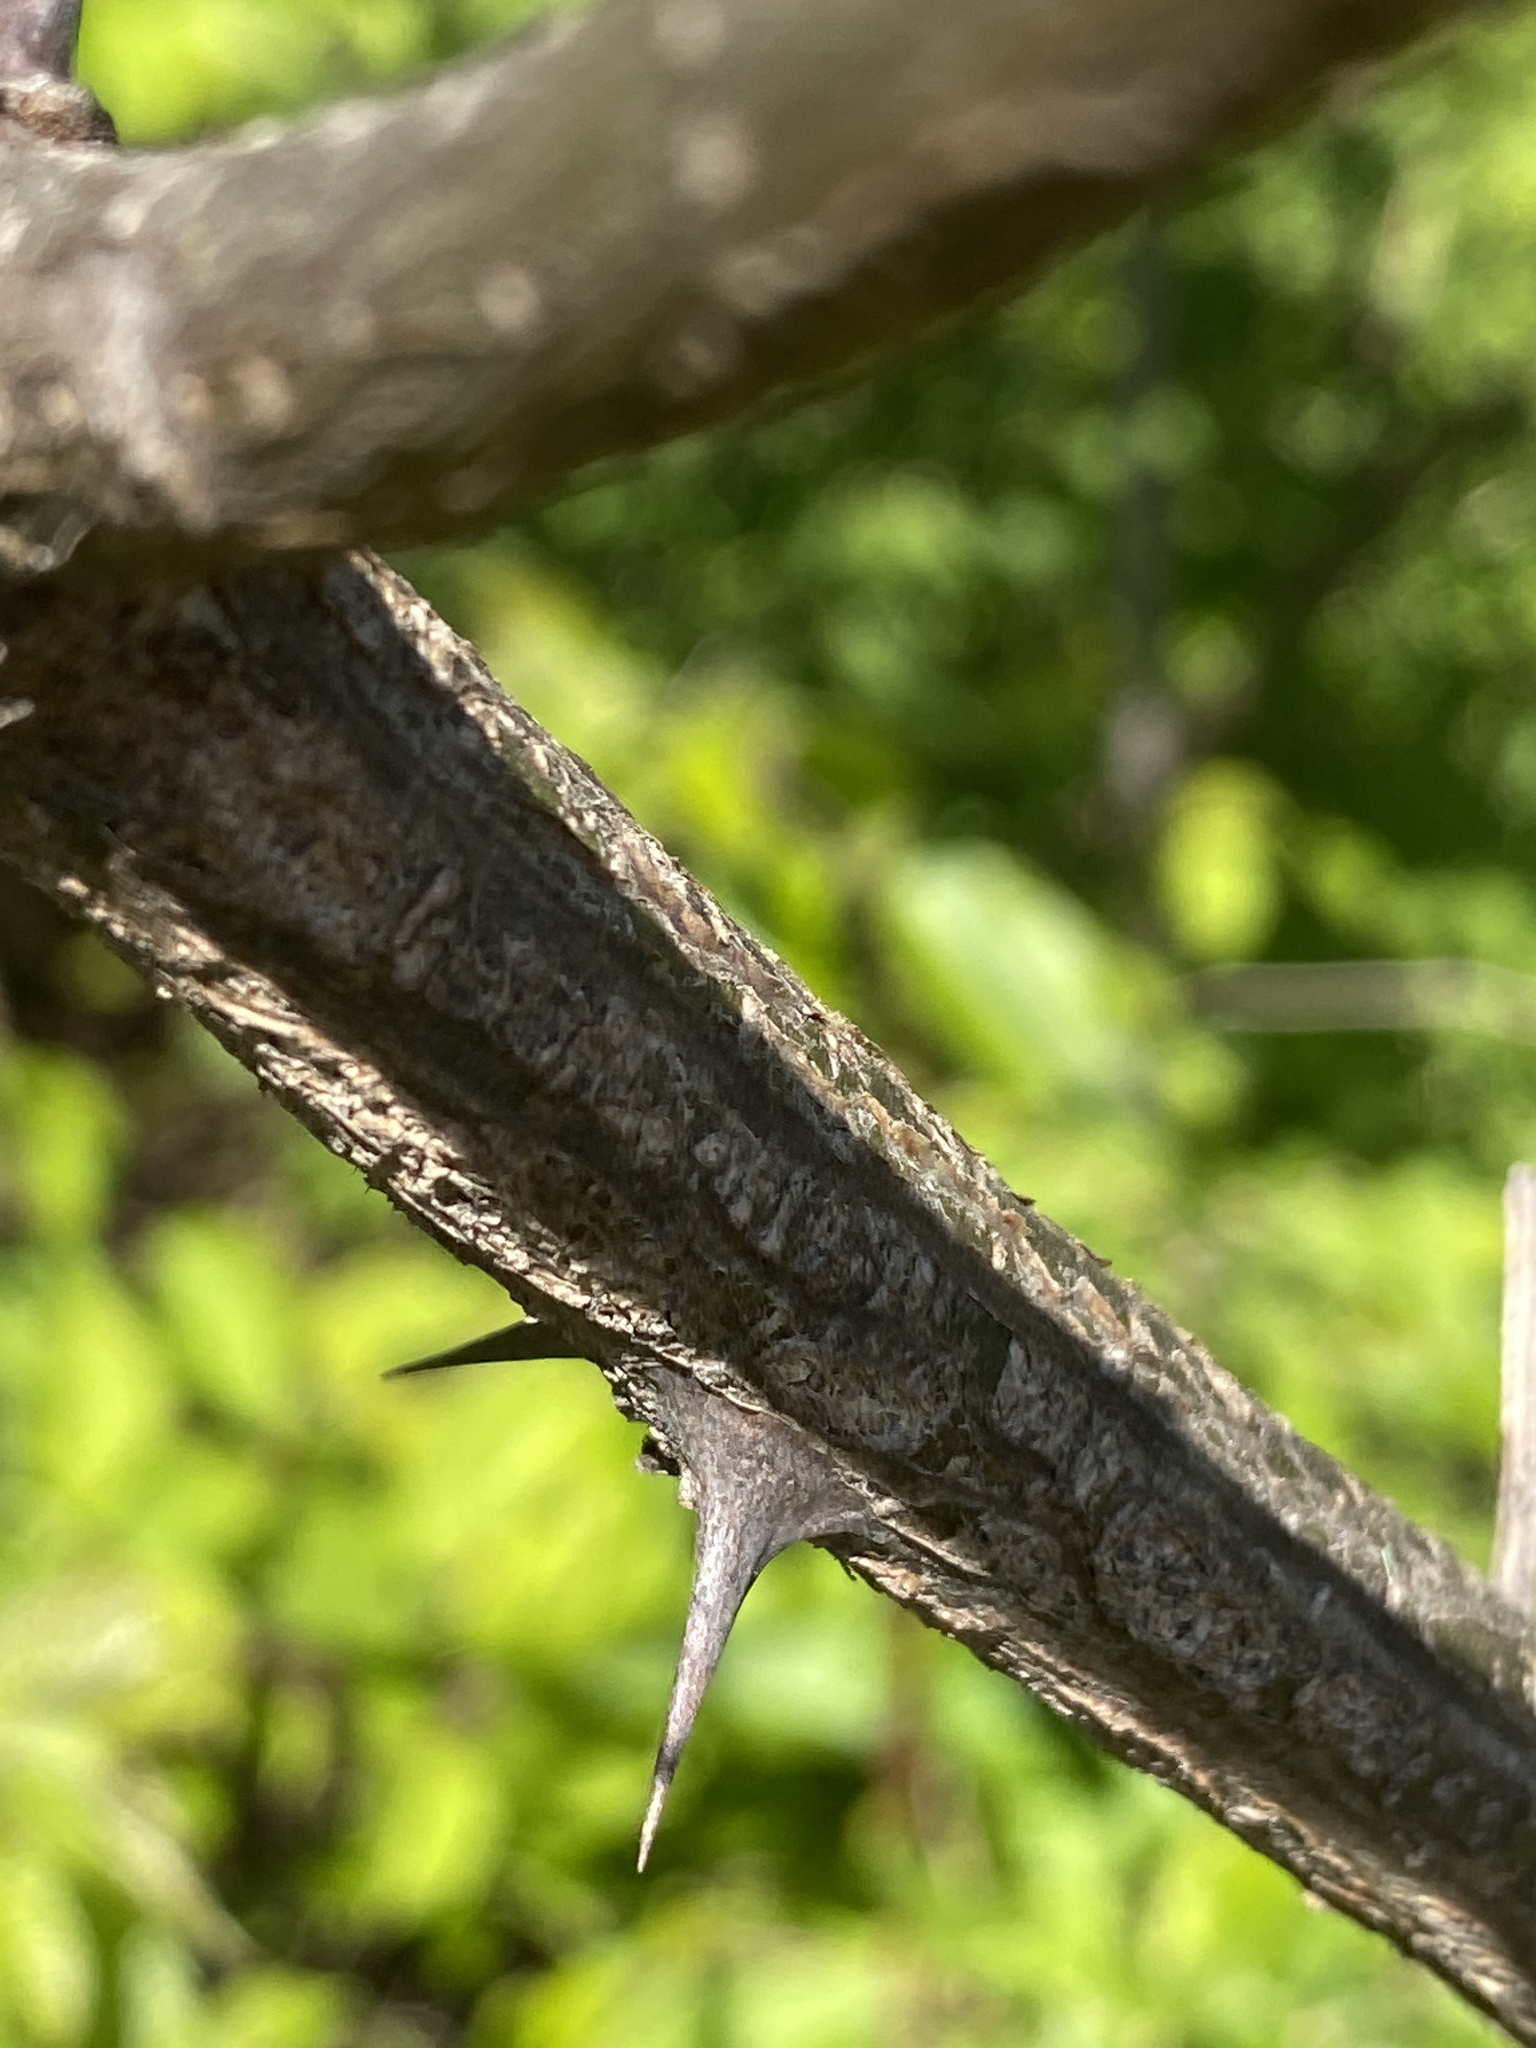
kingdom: Plantae
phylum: Tracheophyta
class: Magnoliopsida
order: Fabales
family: Fabaceae
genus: Robinia
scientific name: Robinia pseudoacacia
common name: Black locust
